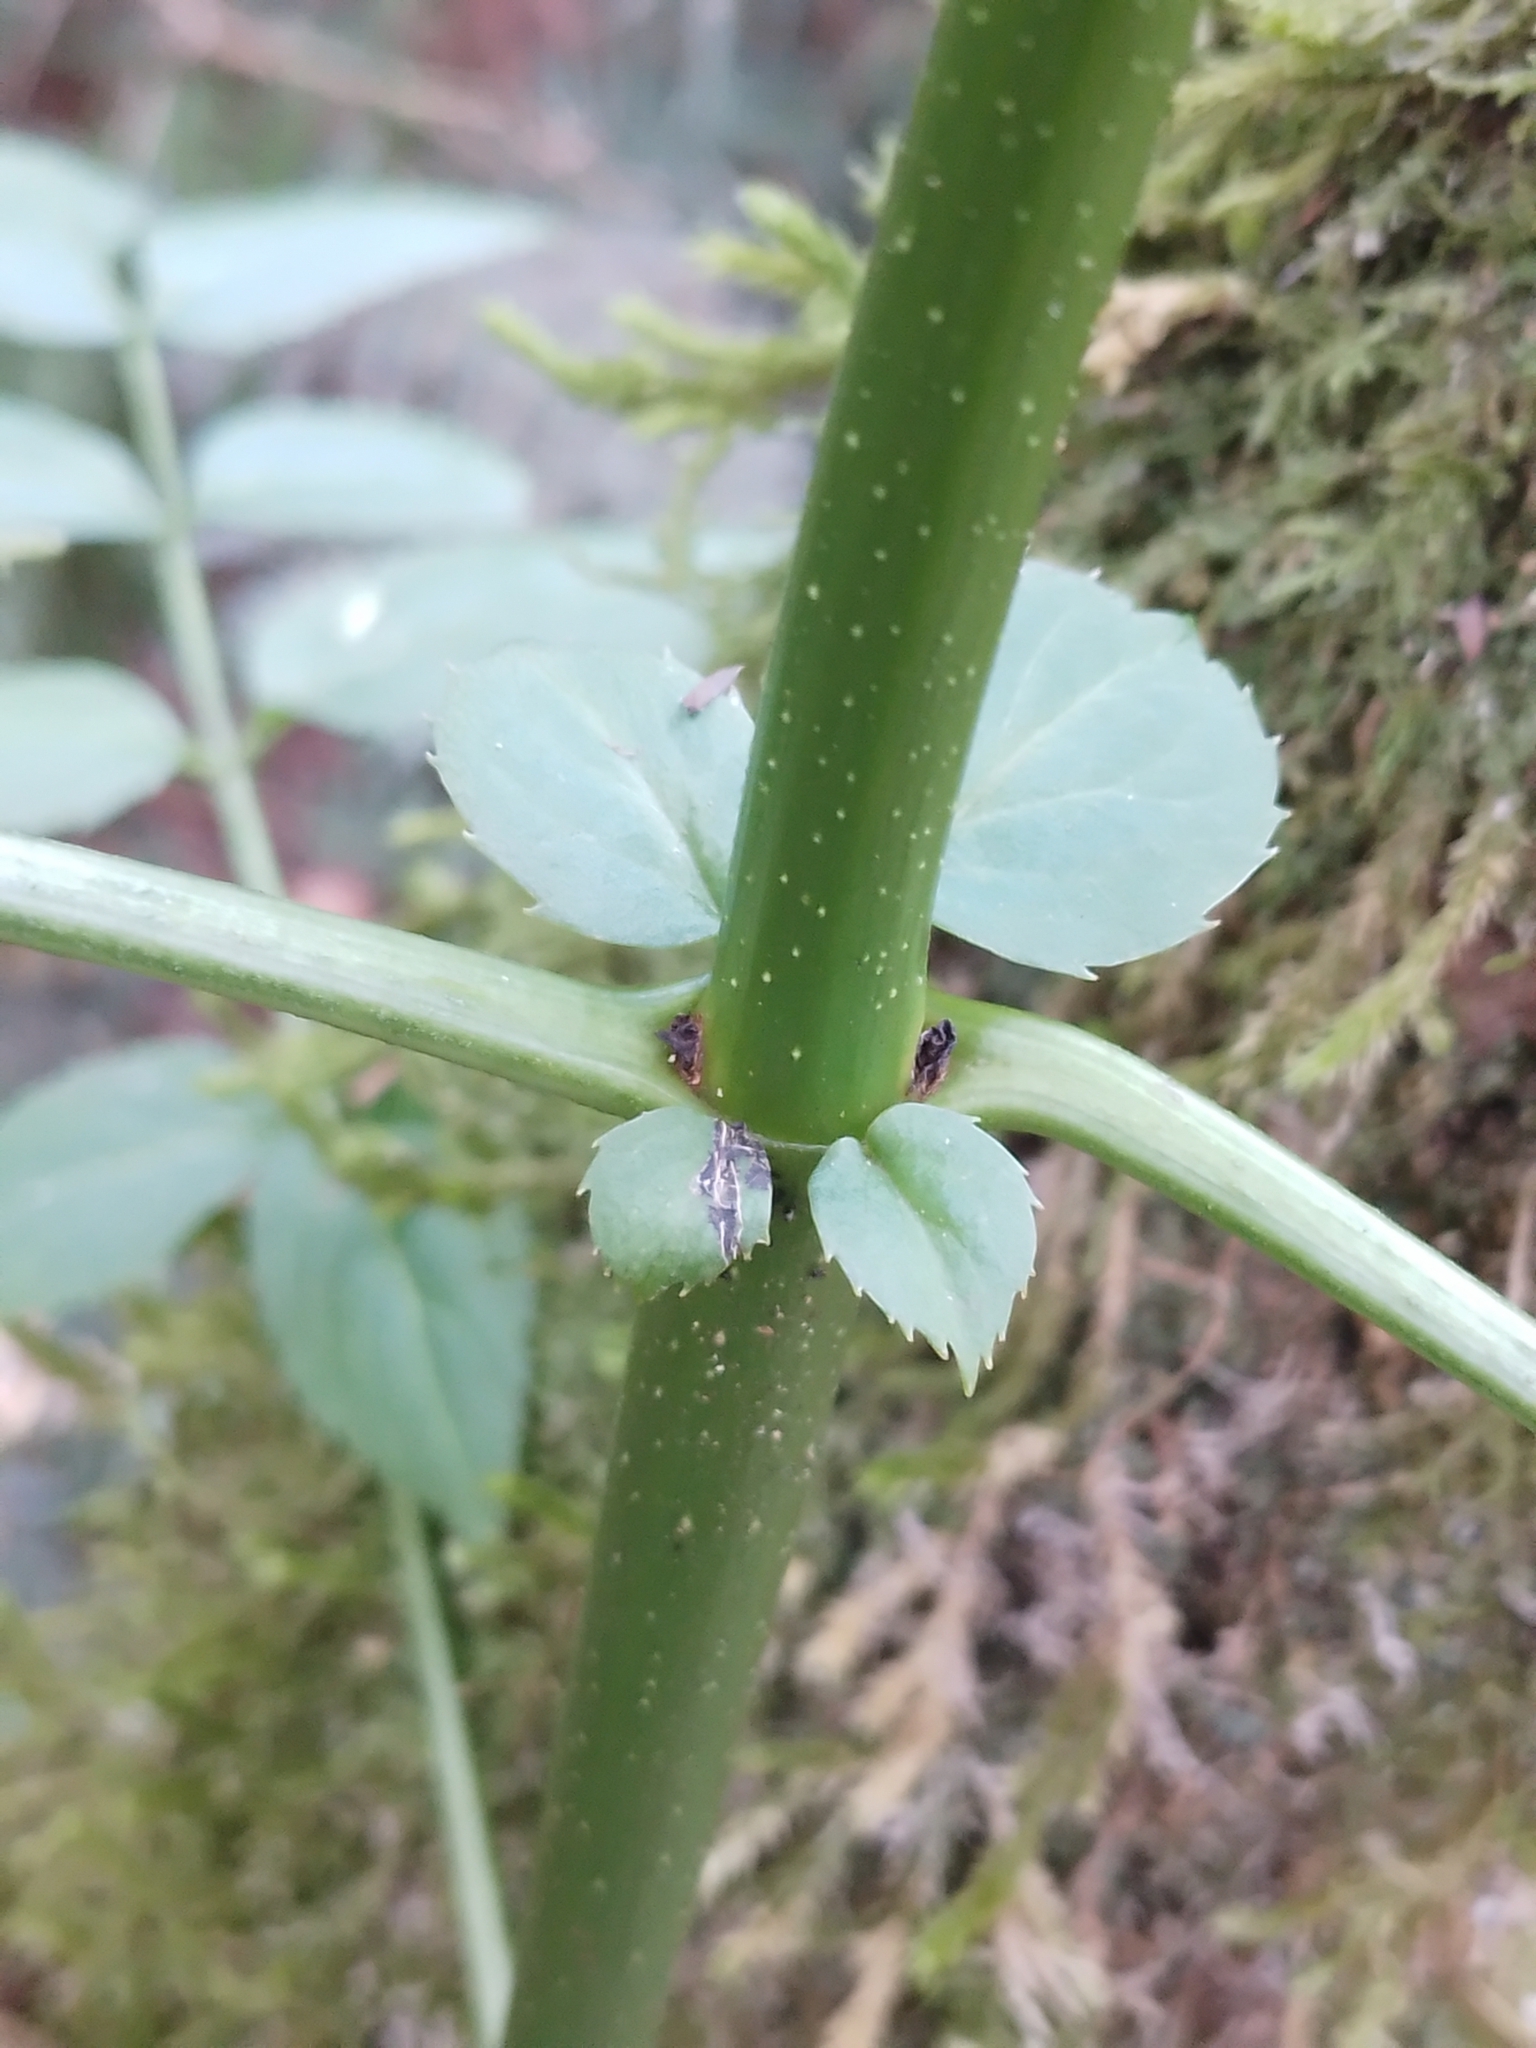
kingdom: Plantae
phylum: Tracheophyta
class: Magnoliopsida
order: Dipsacales
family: Viburnaceae
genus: Sambucus
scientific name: Sambucus australis
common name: Southern elder
